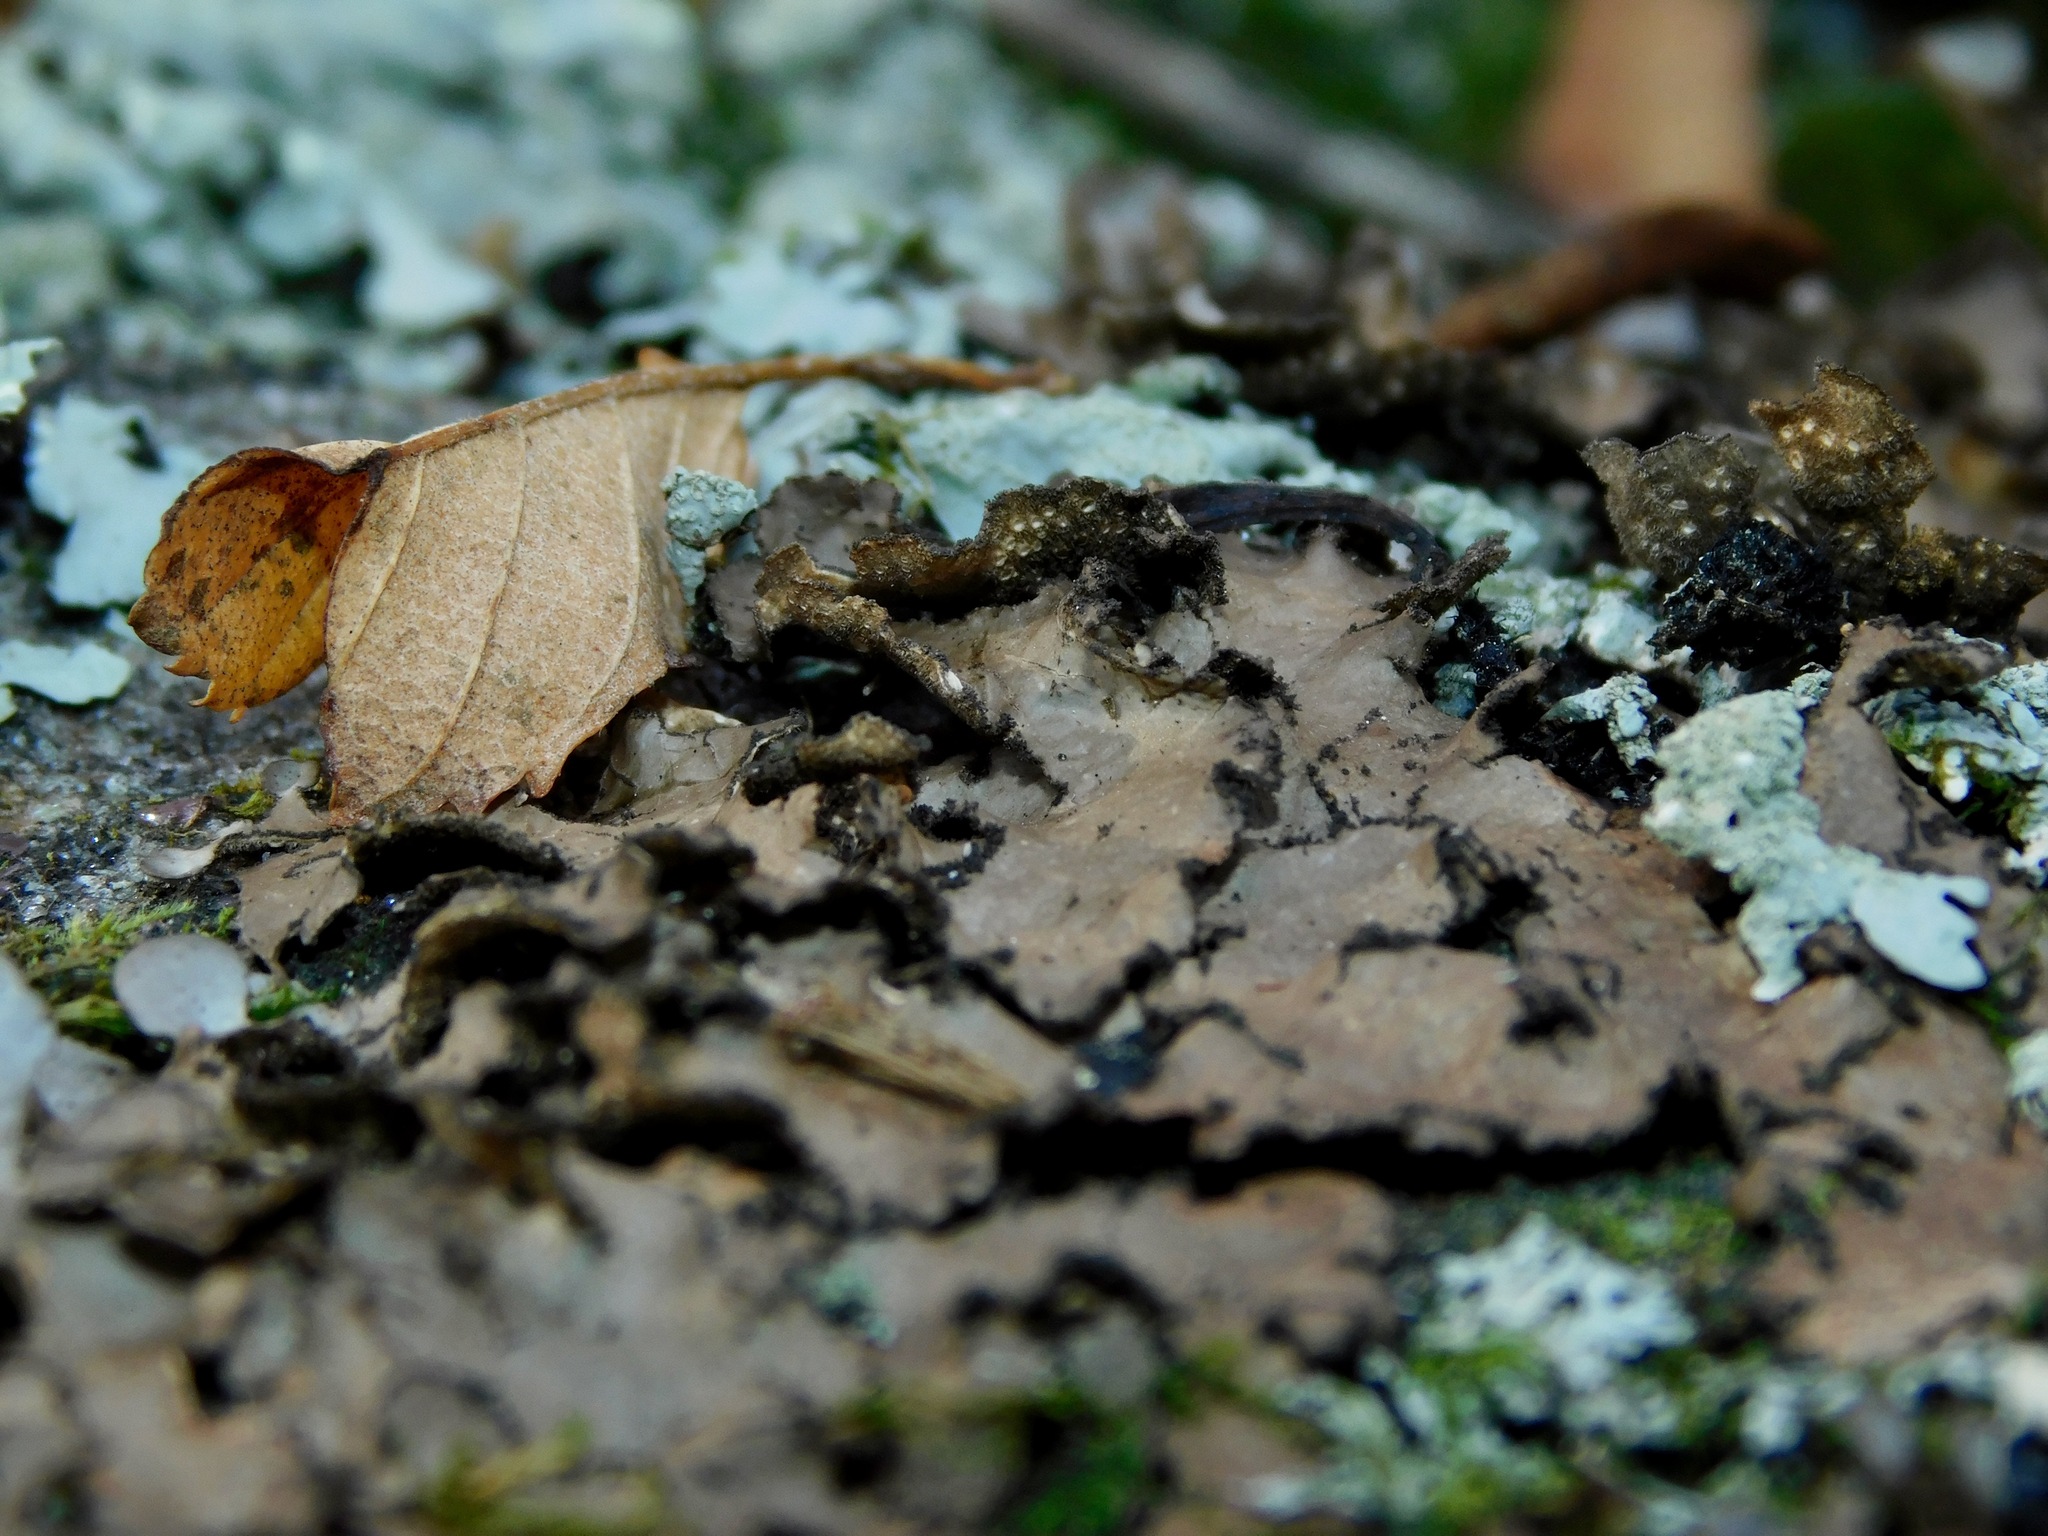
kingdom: Fungi
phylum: Ascomycota
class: Lecanoromycetes
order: Peltigerales
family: Lobariaceae
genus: Sticta
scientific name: Sticta beauvoisii
